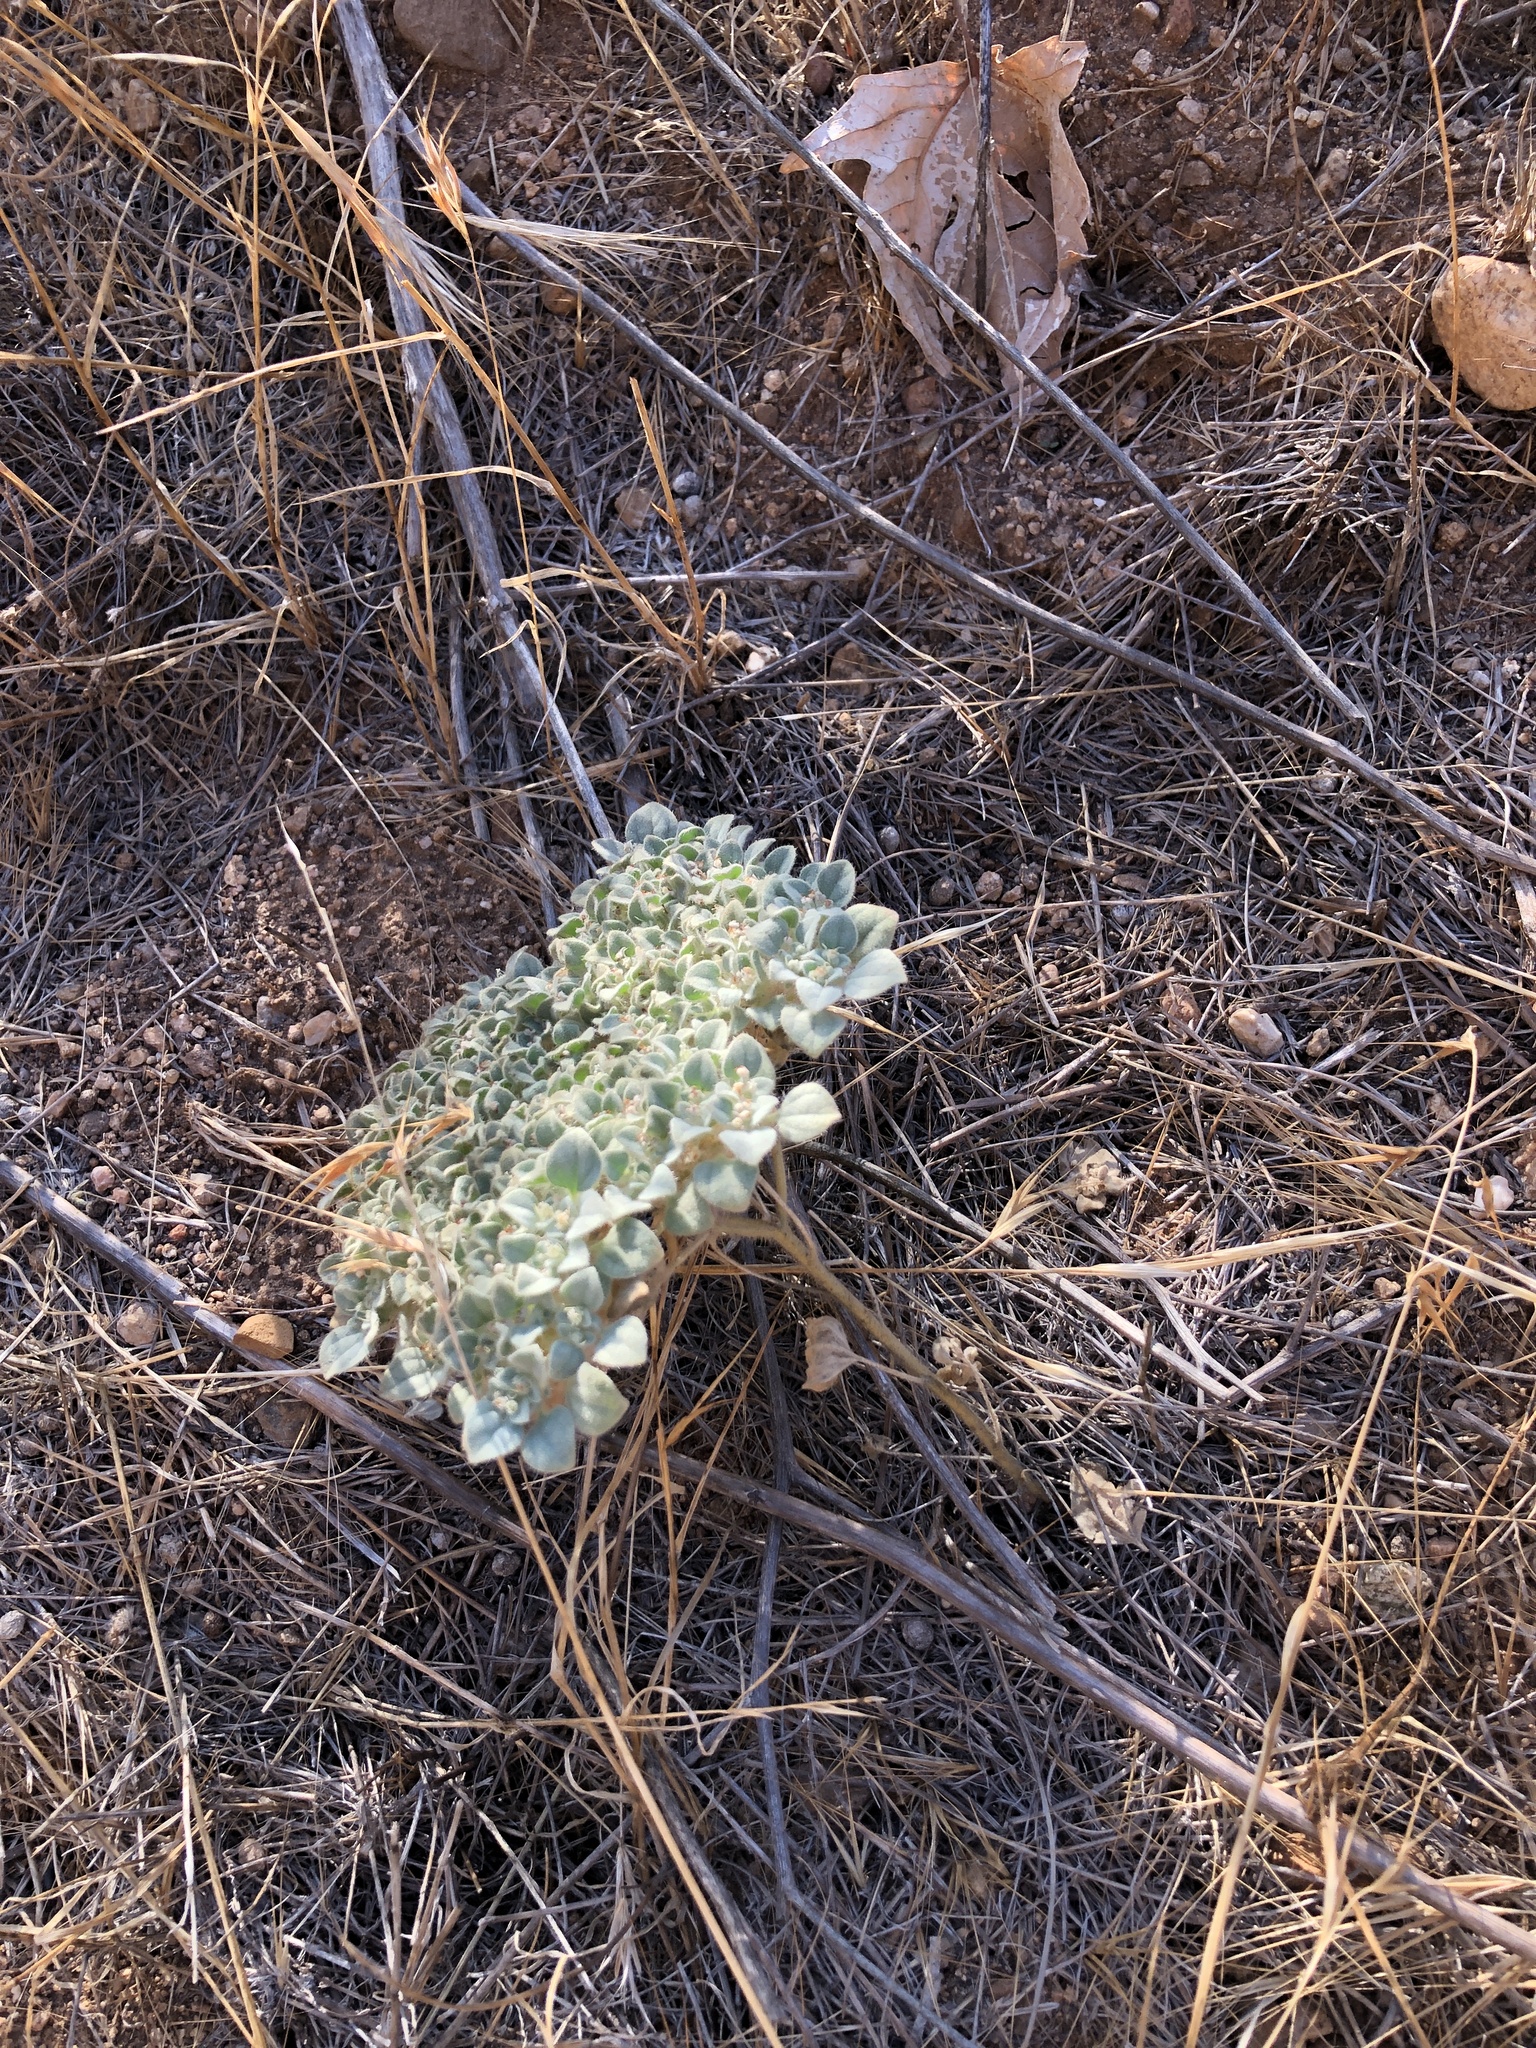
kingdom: Plantae
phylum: Tracheophyta
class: Magnoliopsida
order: Malpighiales
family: Euphorbiaceae
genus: Croton
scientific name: Croton setiger
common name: Dove weed
